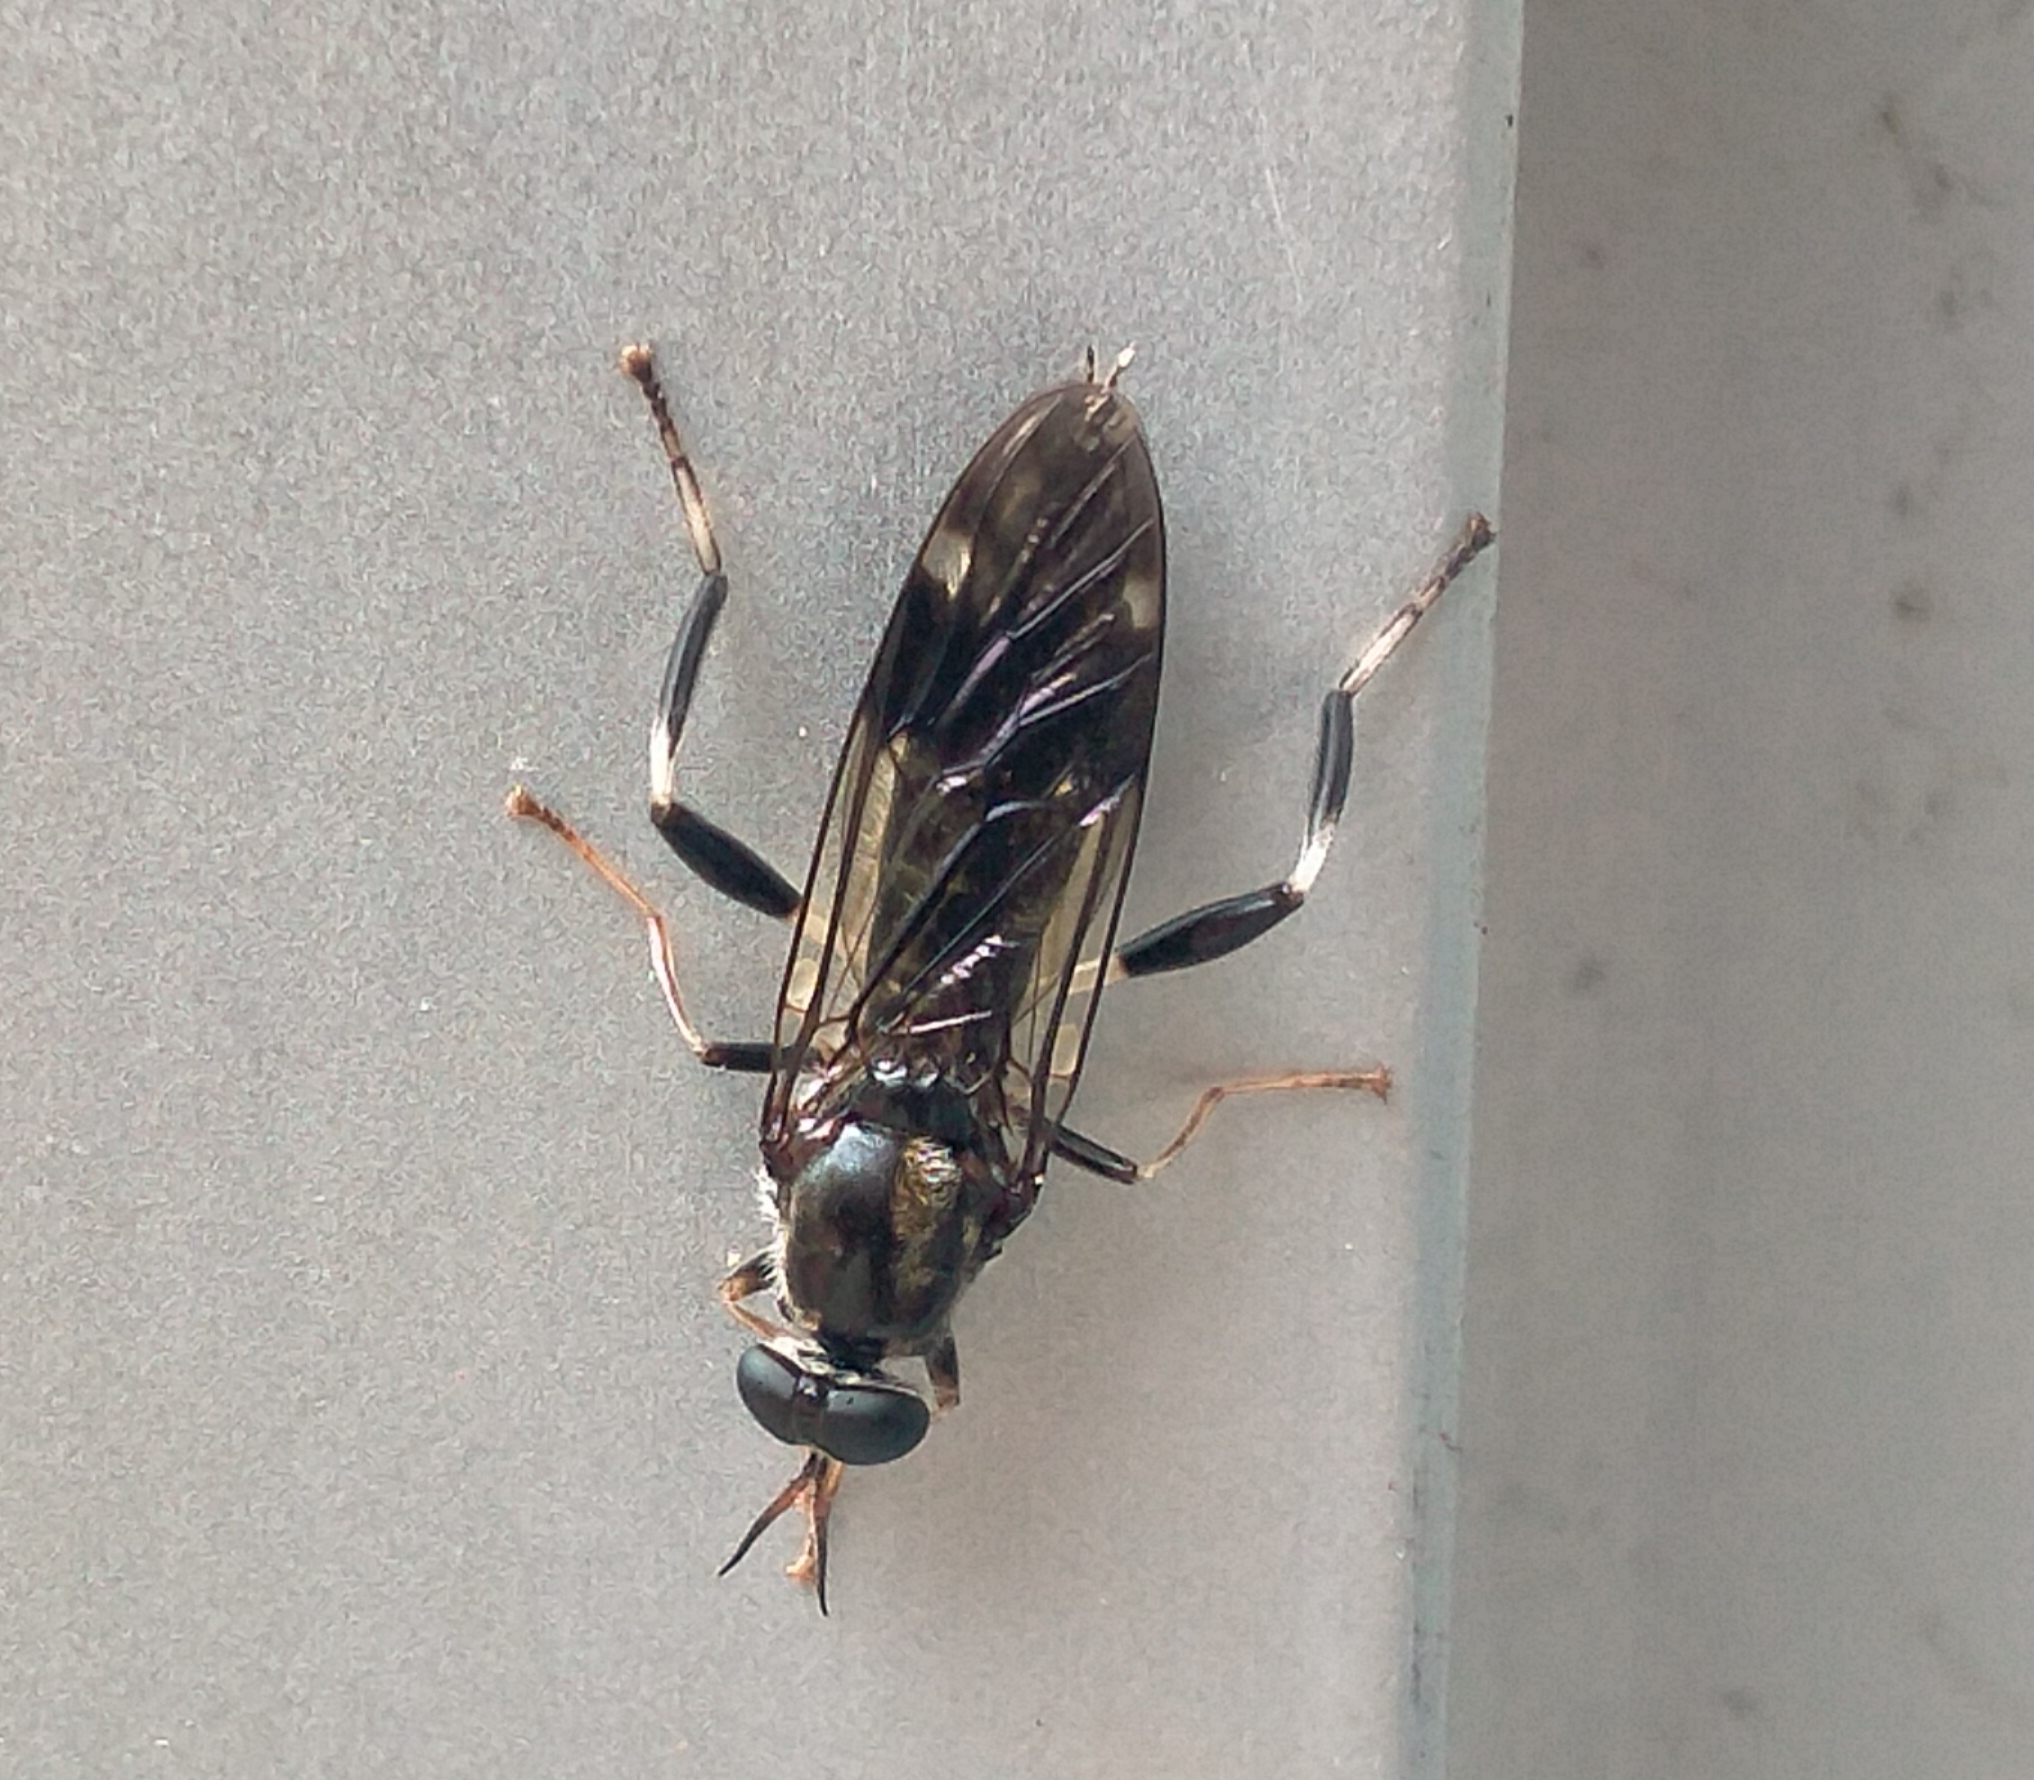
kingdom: Animalia
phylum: Arthropoda
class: Insecta
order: Diptera
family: Stratiomyidae
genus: Exaireta
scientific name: Exaireta spinigera
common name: Blue soldier fly
